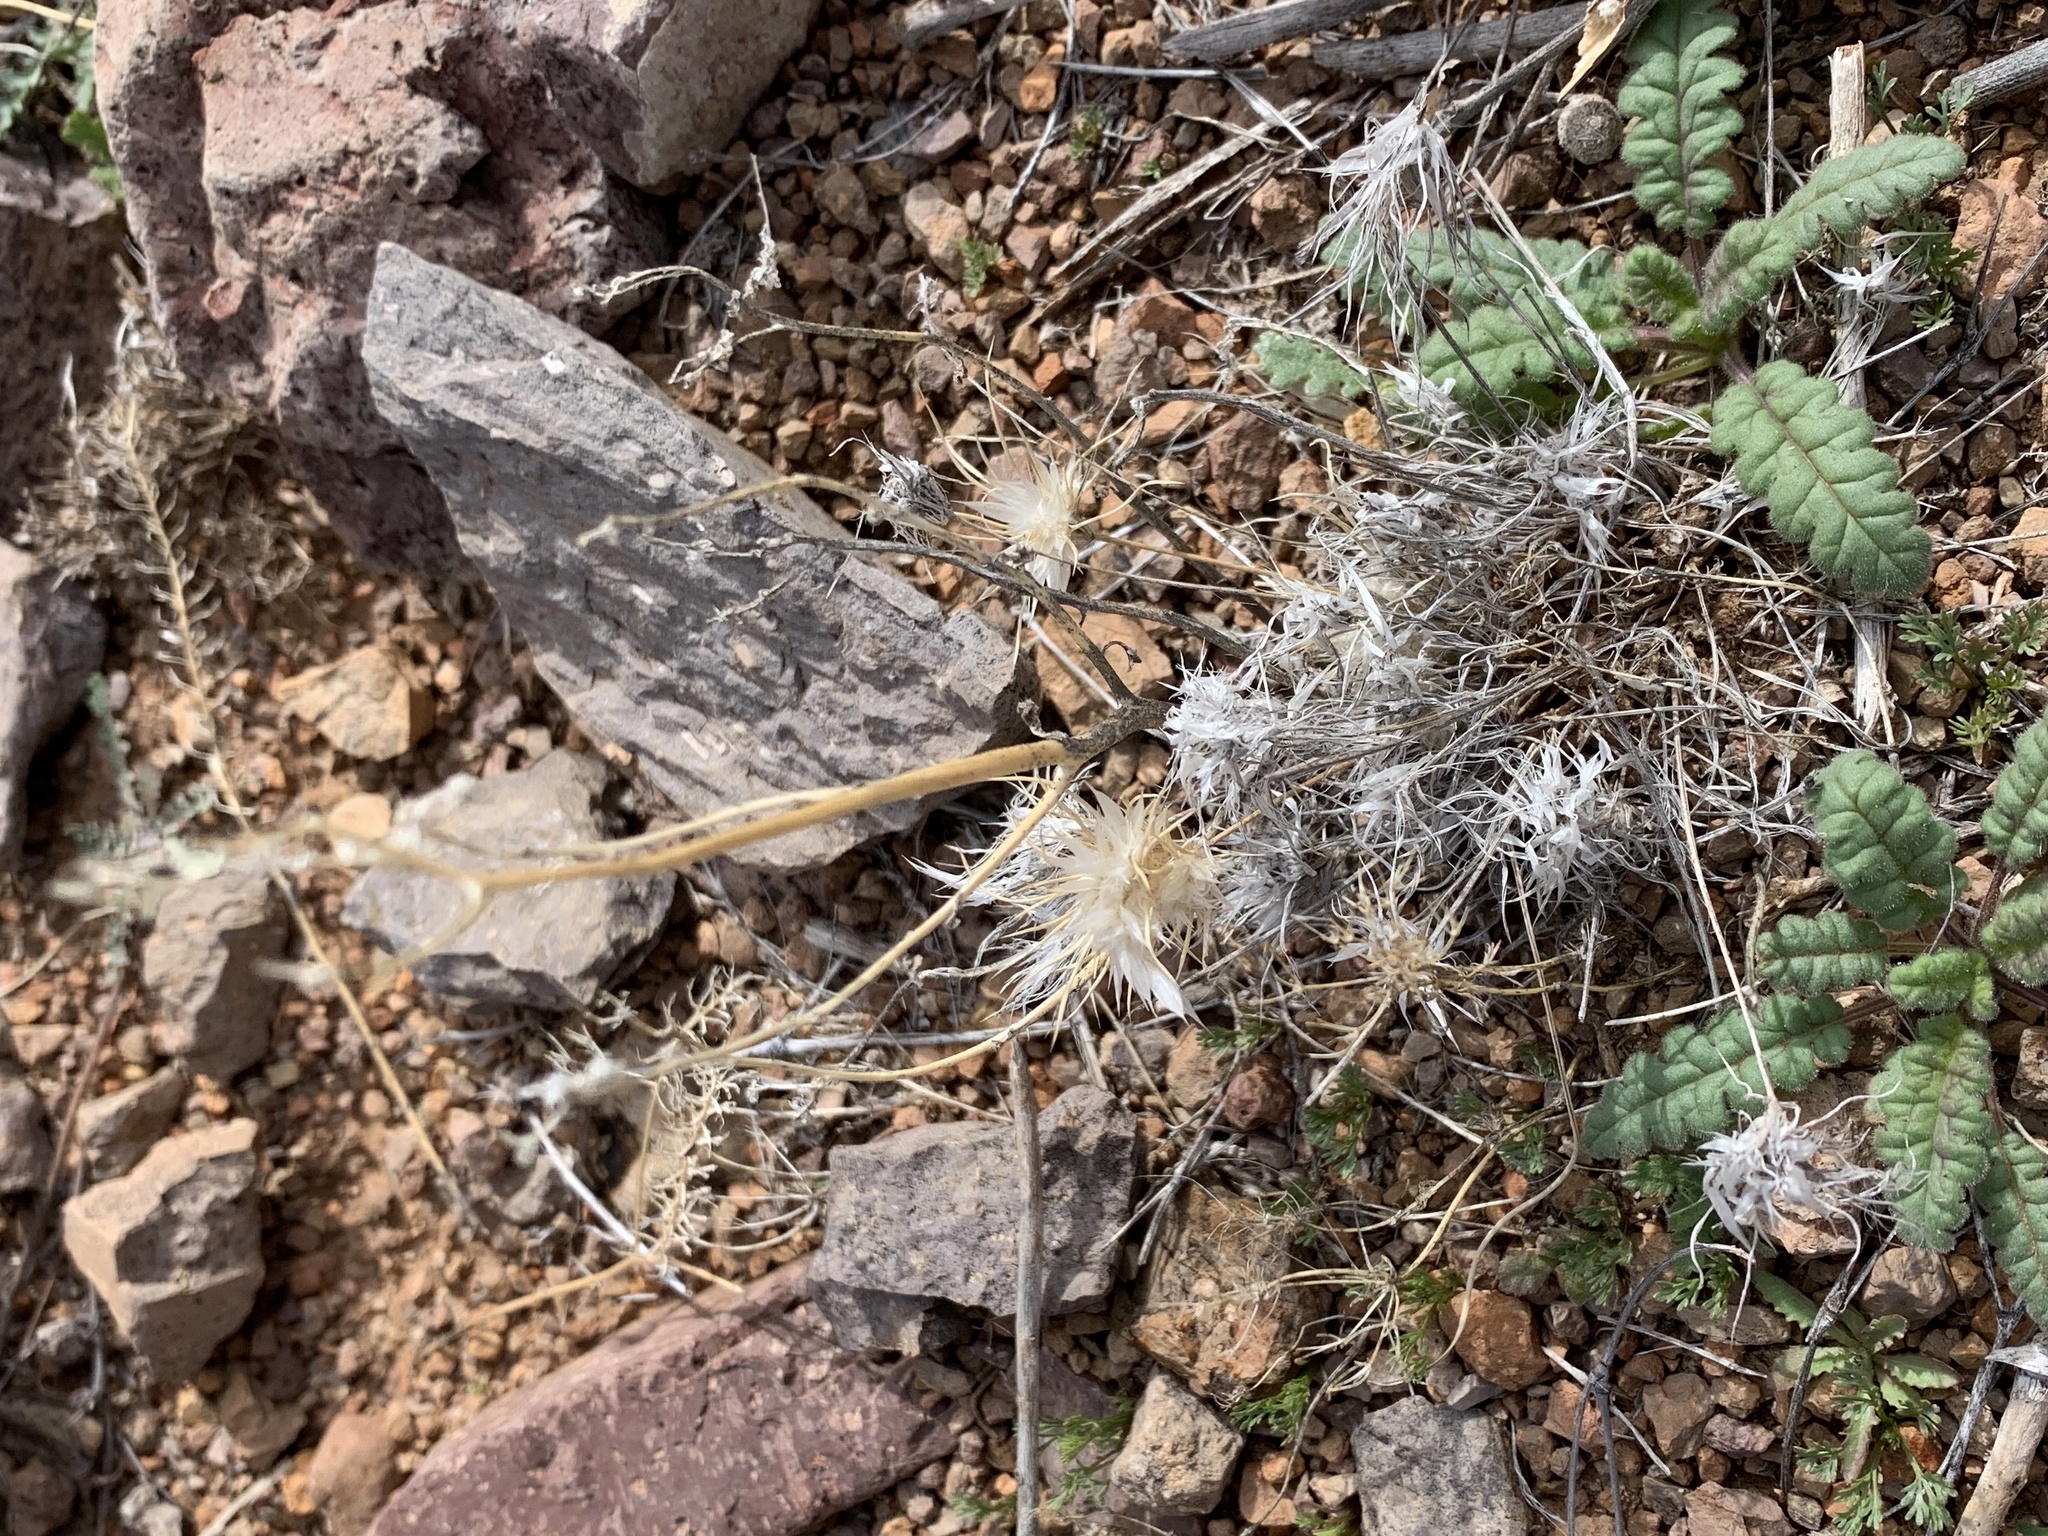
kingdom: Plantae
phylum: Tracheophyta
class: Liliopsida
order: Poales
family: Poaceae
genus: Dasyochloa
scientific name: Dasyochloa pulchella
